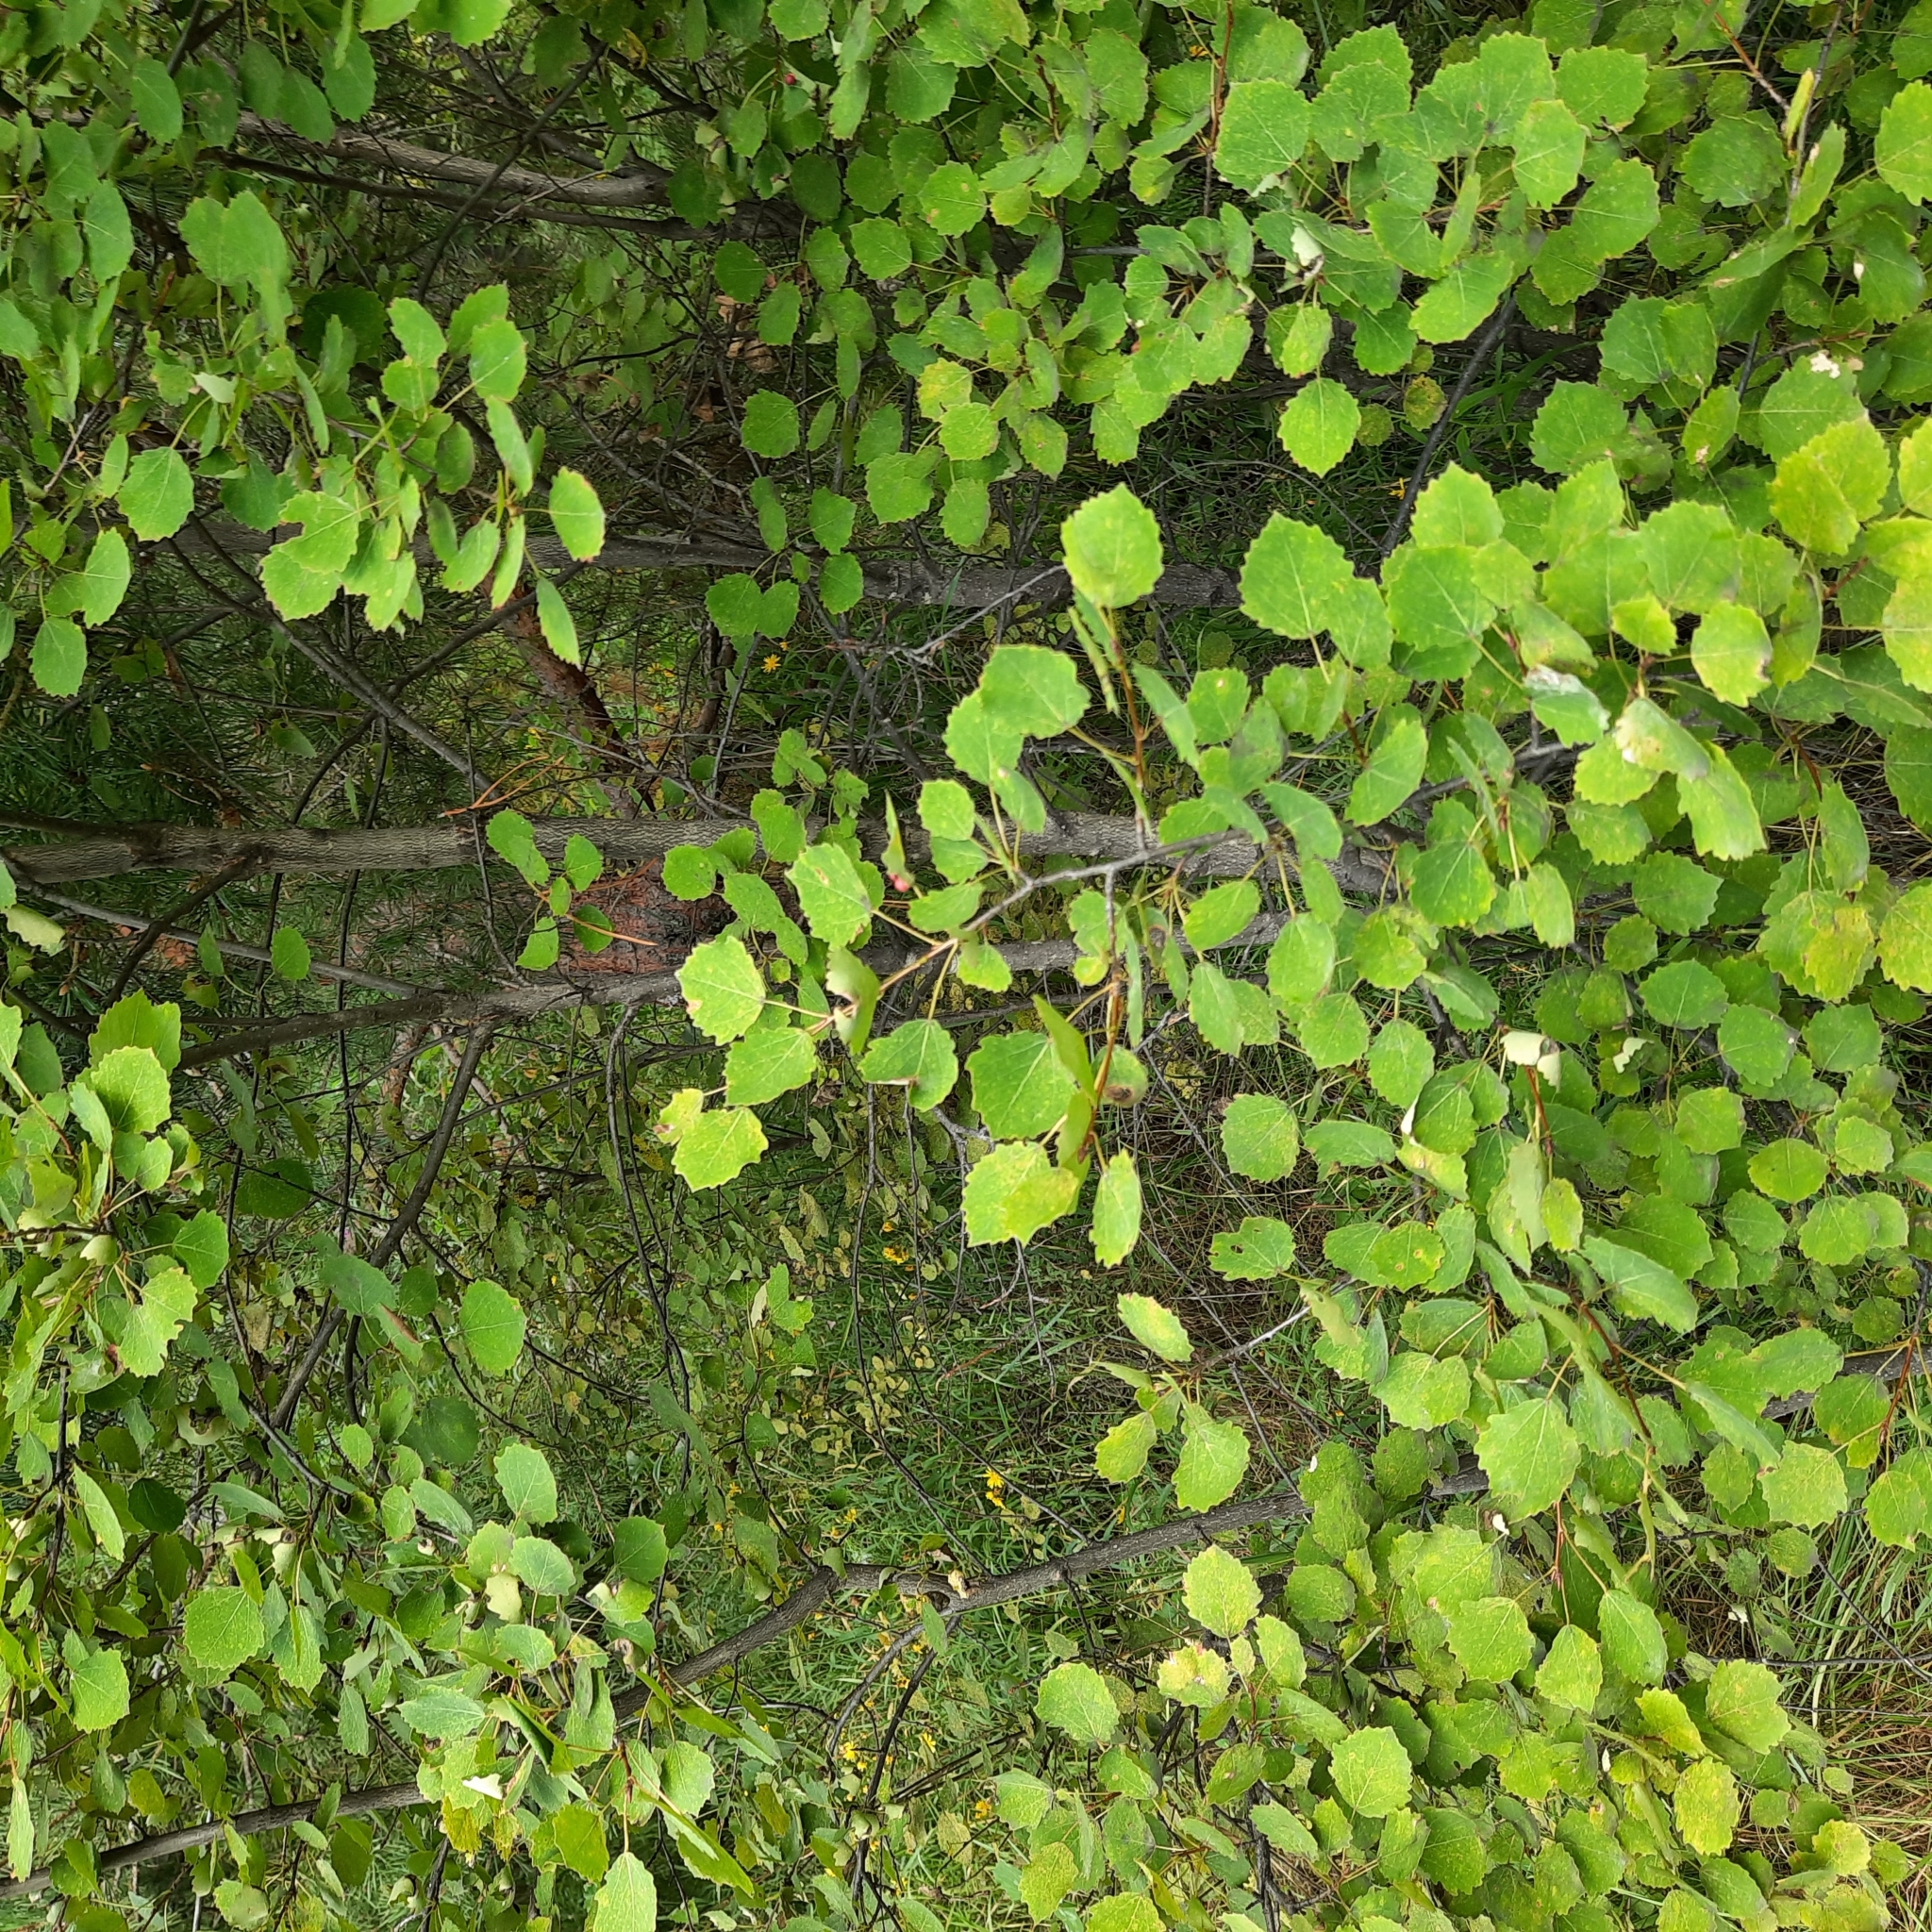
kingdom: Plantae
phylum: Tracheophyta
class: Magnoliopsida
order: Malpighiales
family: Salicaceae
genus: Populus
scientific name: Populus tremula
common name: European aspen
